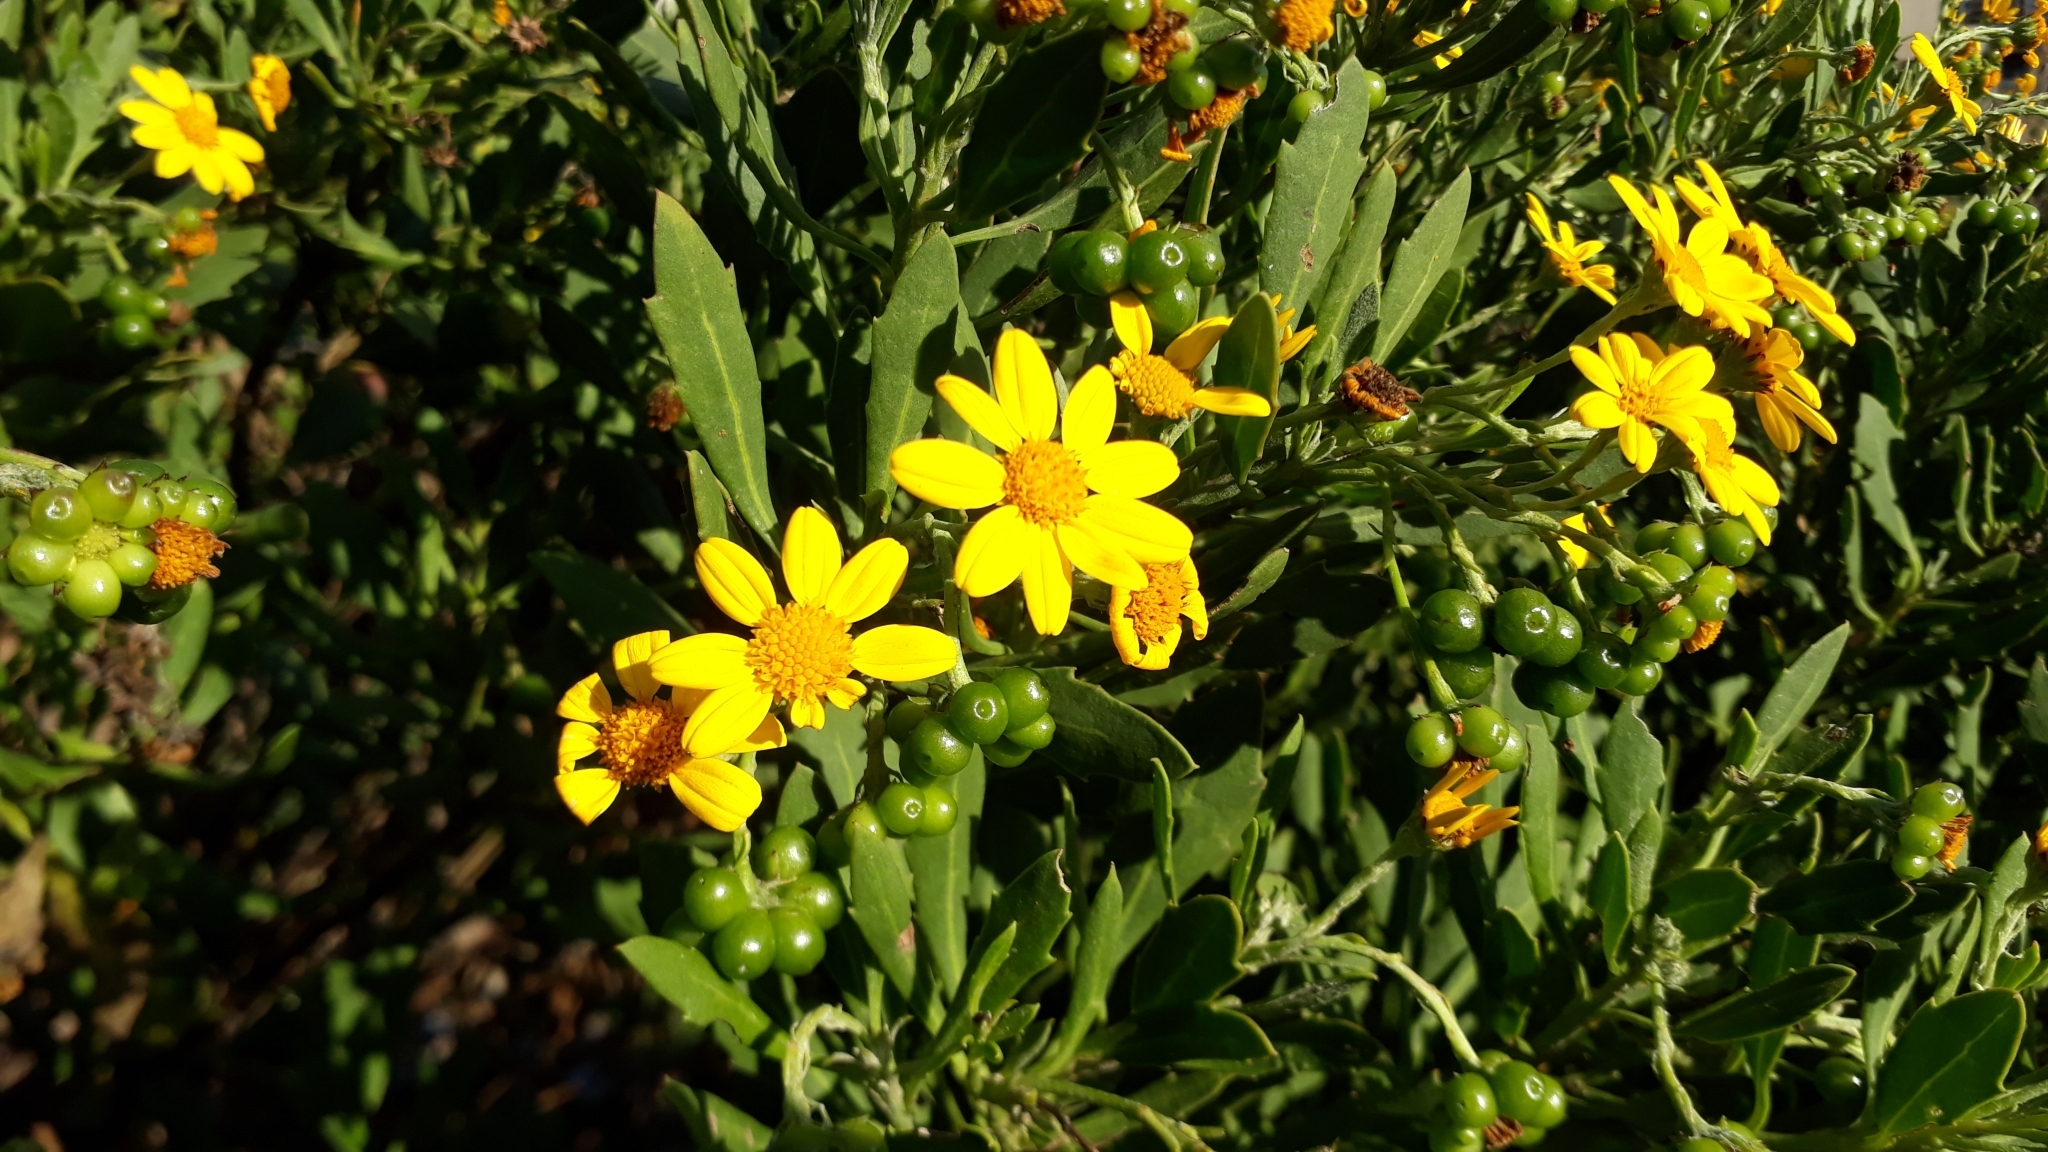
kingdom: Plantae
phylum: Tracheophyta
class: Magnoliopsida
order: Asterales
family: Asteraceae
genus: Osteospermum
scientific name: Osteospermum moniliferum
